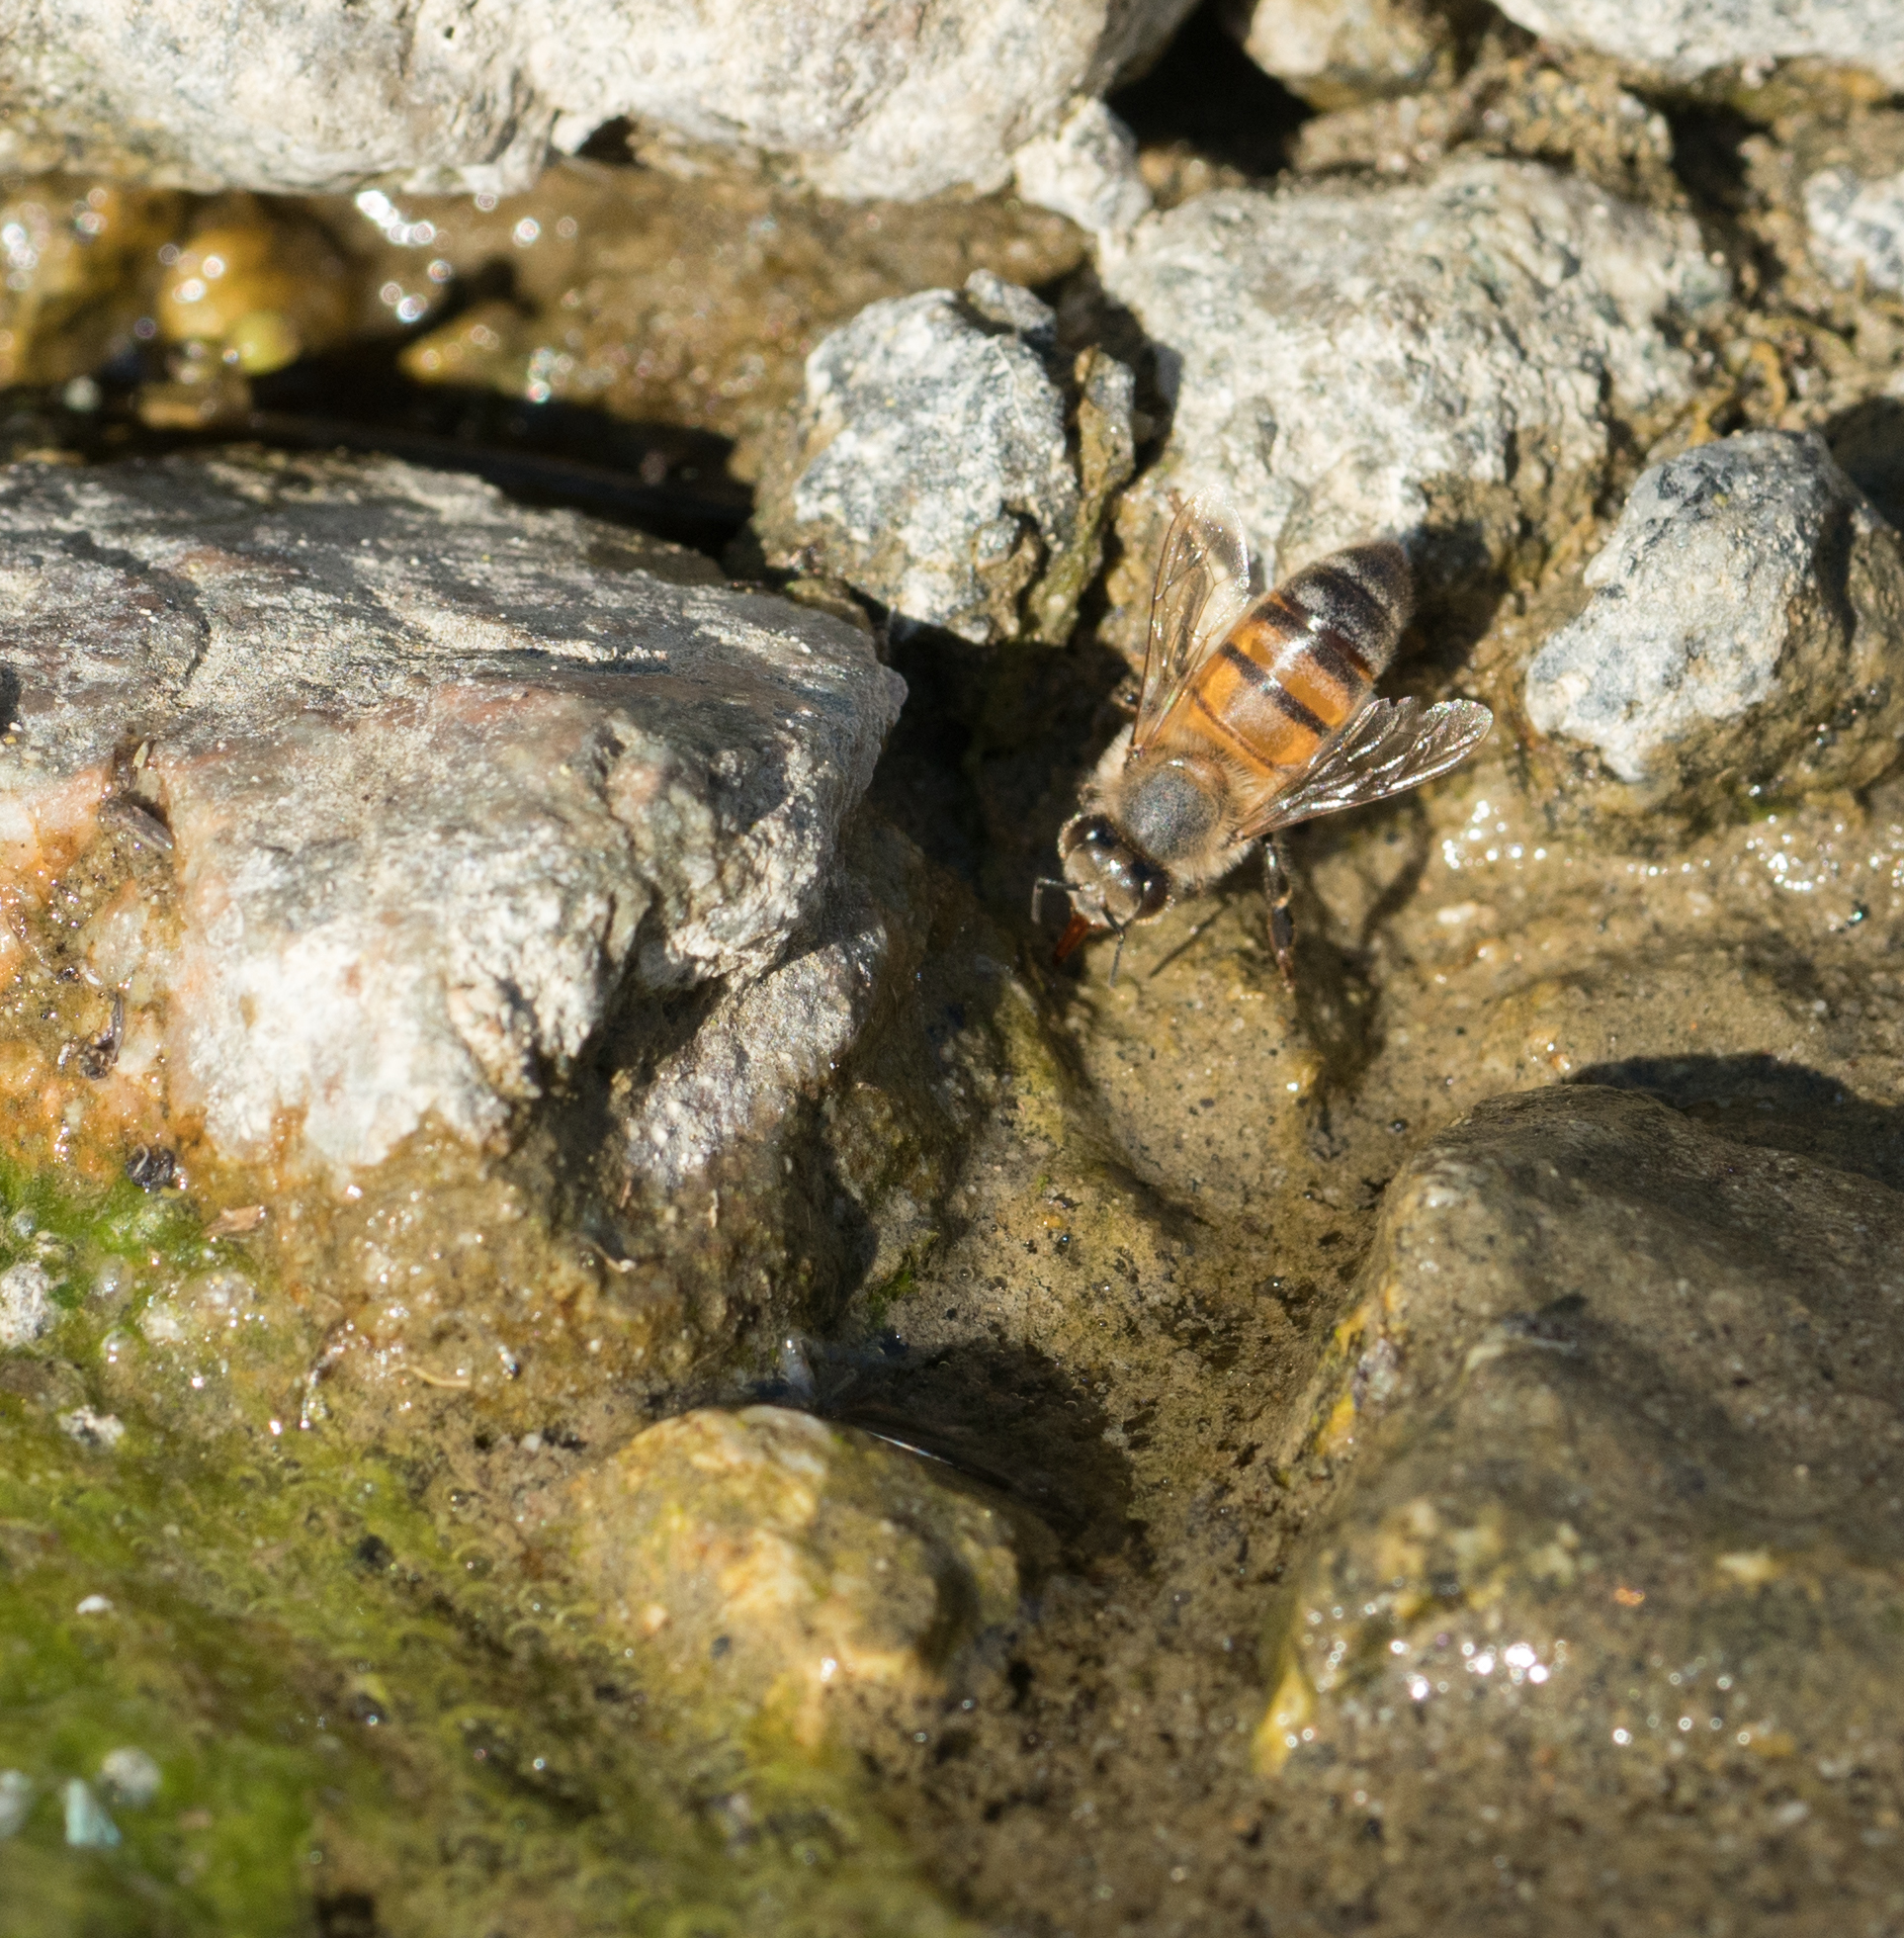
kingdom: Animalia
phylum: Arthropoda
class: Insecta
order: Hymenoptera
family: Apidae
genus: Apis
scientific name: Apis mellifera
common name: Honey bee
